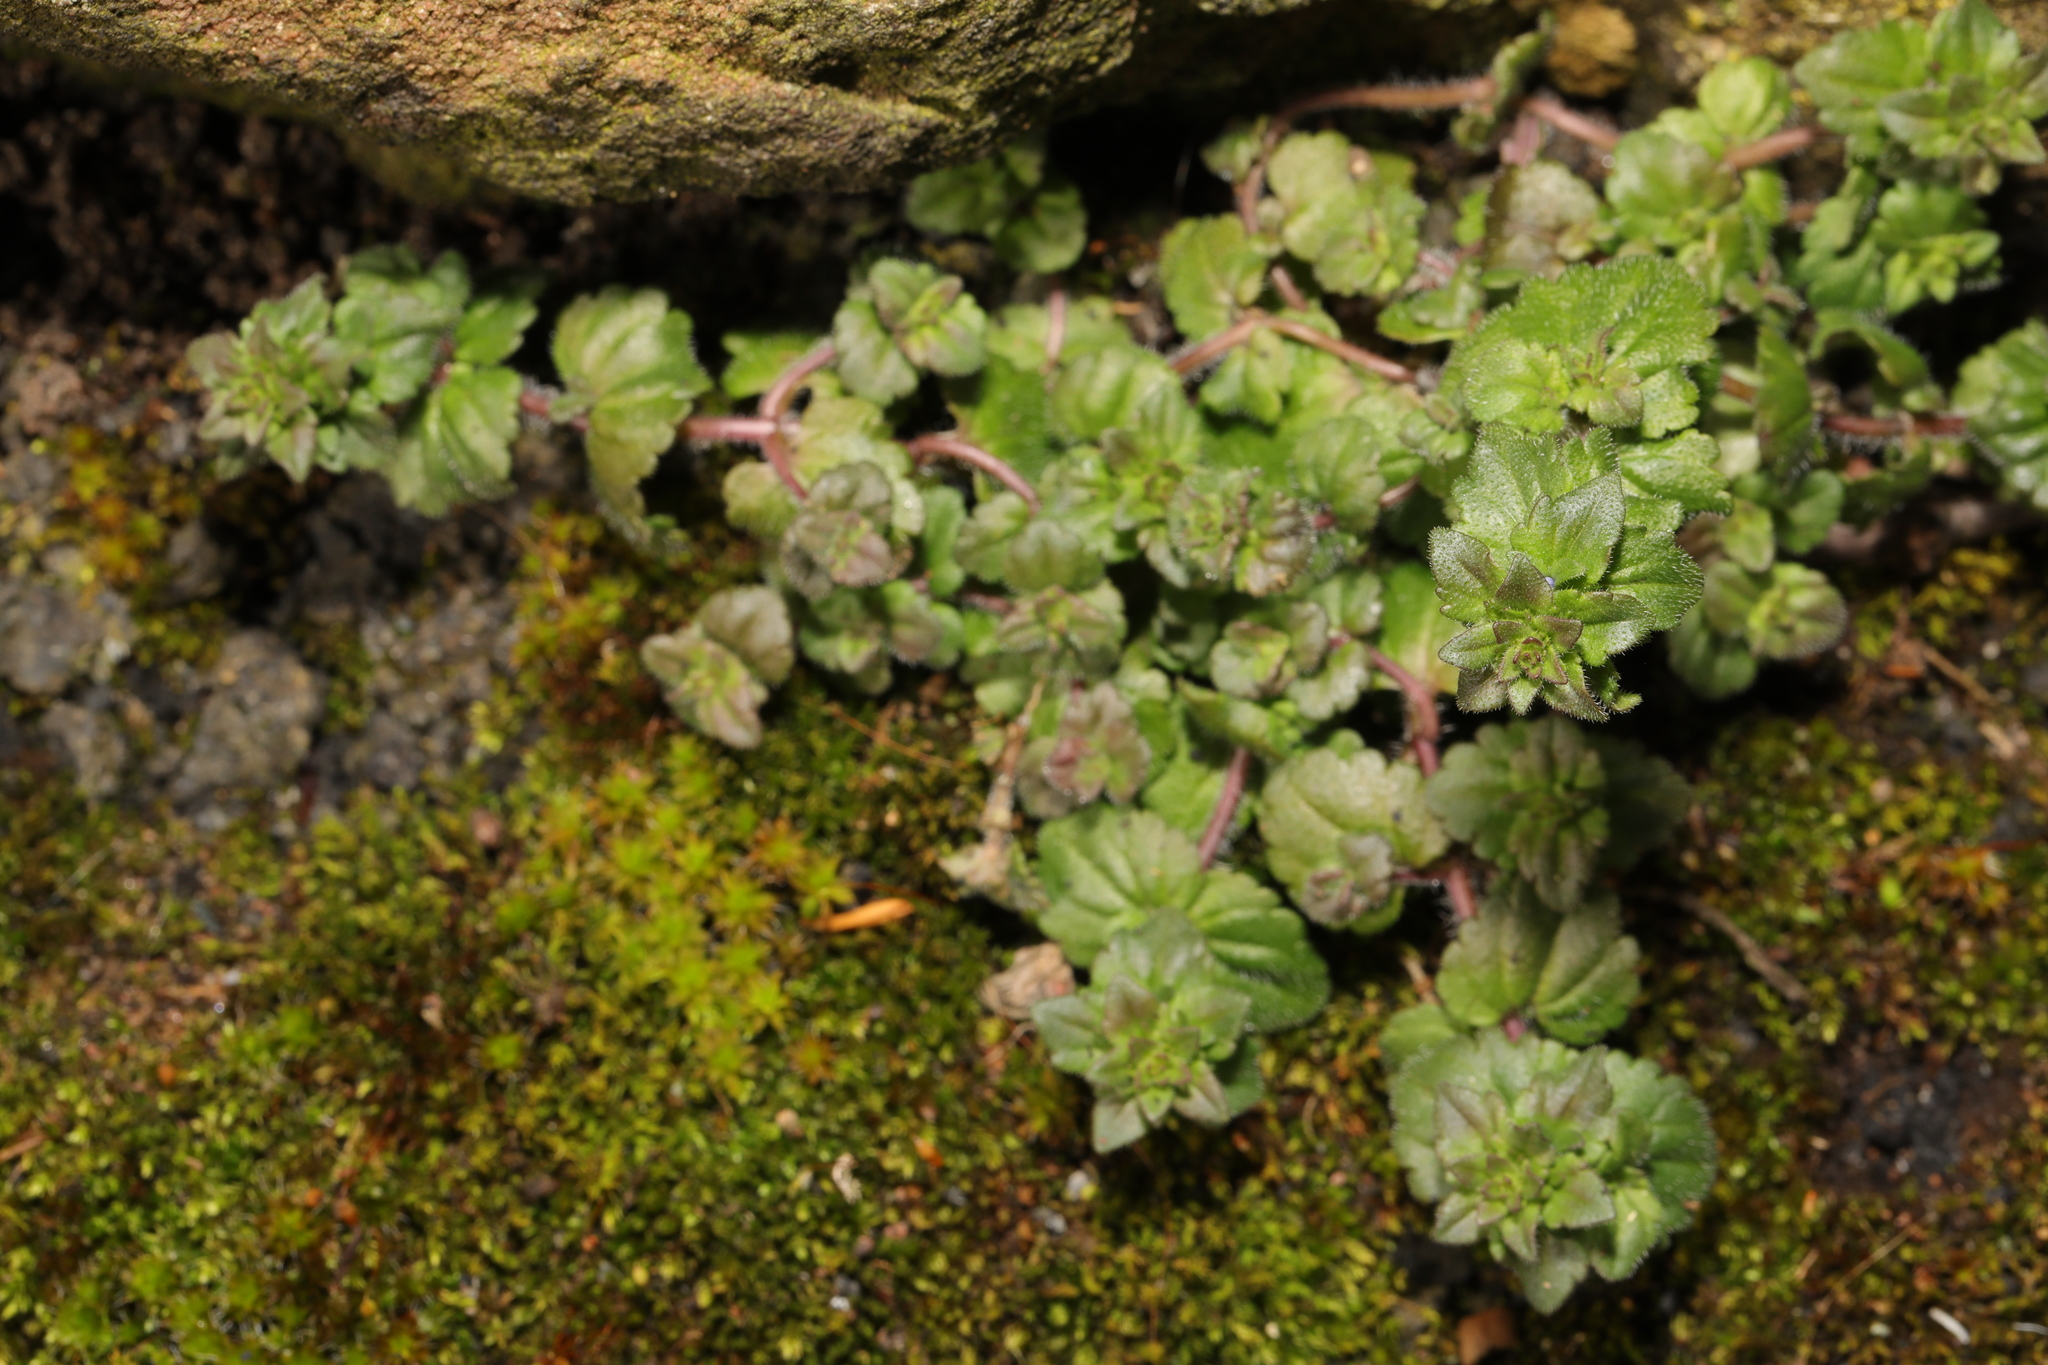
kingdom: Plantae
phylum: Tracheophyta
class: Magnoliopsida
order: Lamiales
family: Plantaginaceae
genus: Veronica
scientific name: Veronica arvensis
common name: Corn speedwell
